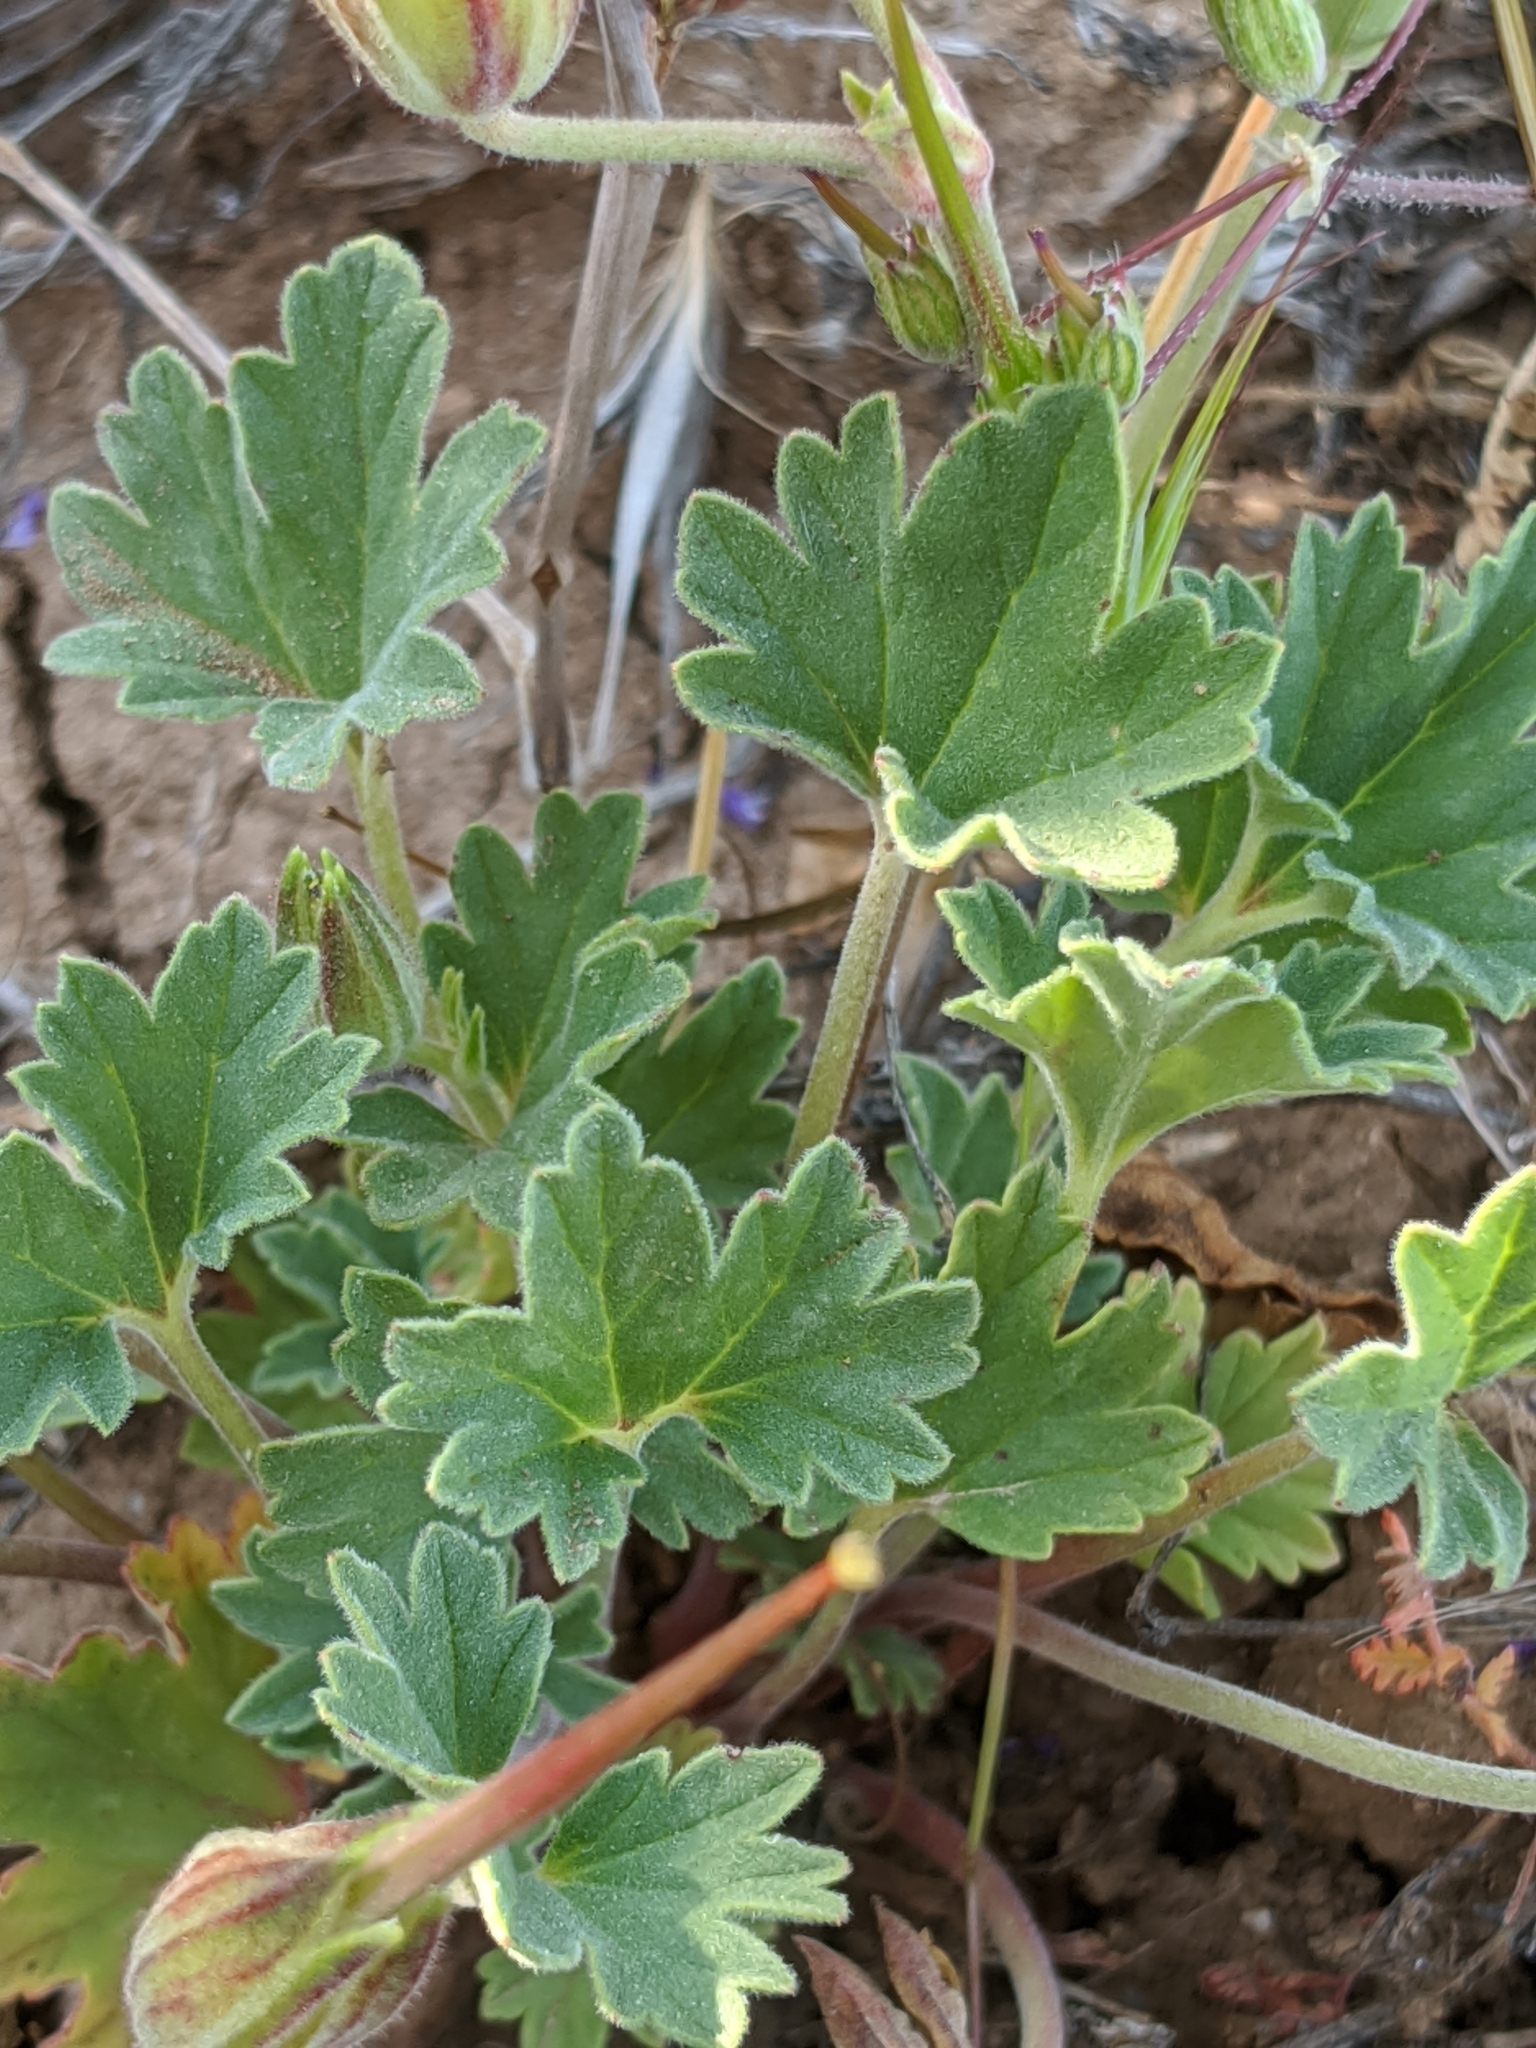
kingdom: Plantae
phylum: Tracheophyta
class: Magnoliopsida
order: Geraniales
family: Geraniaceae
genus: California
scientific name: California macrophylla
